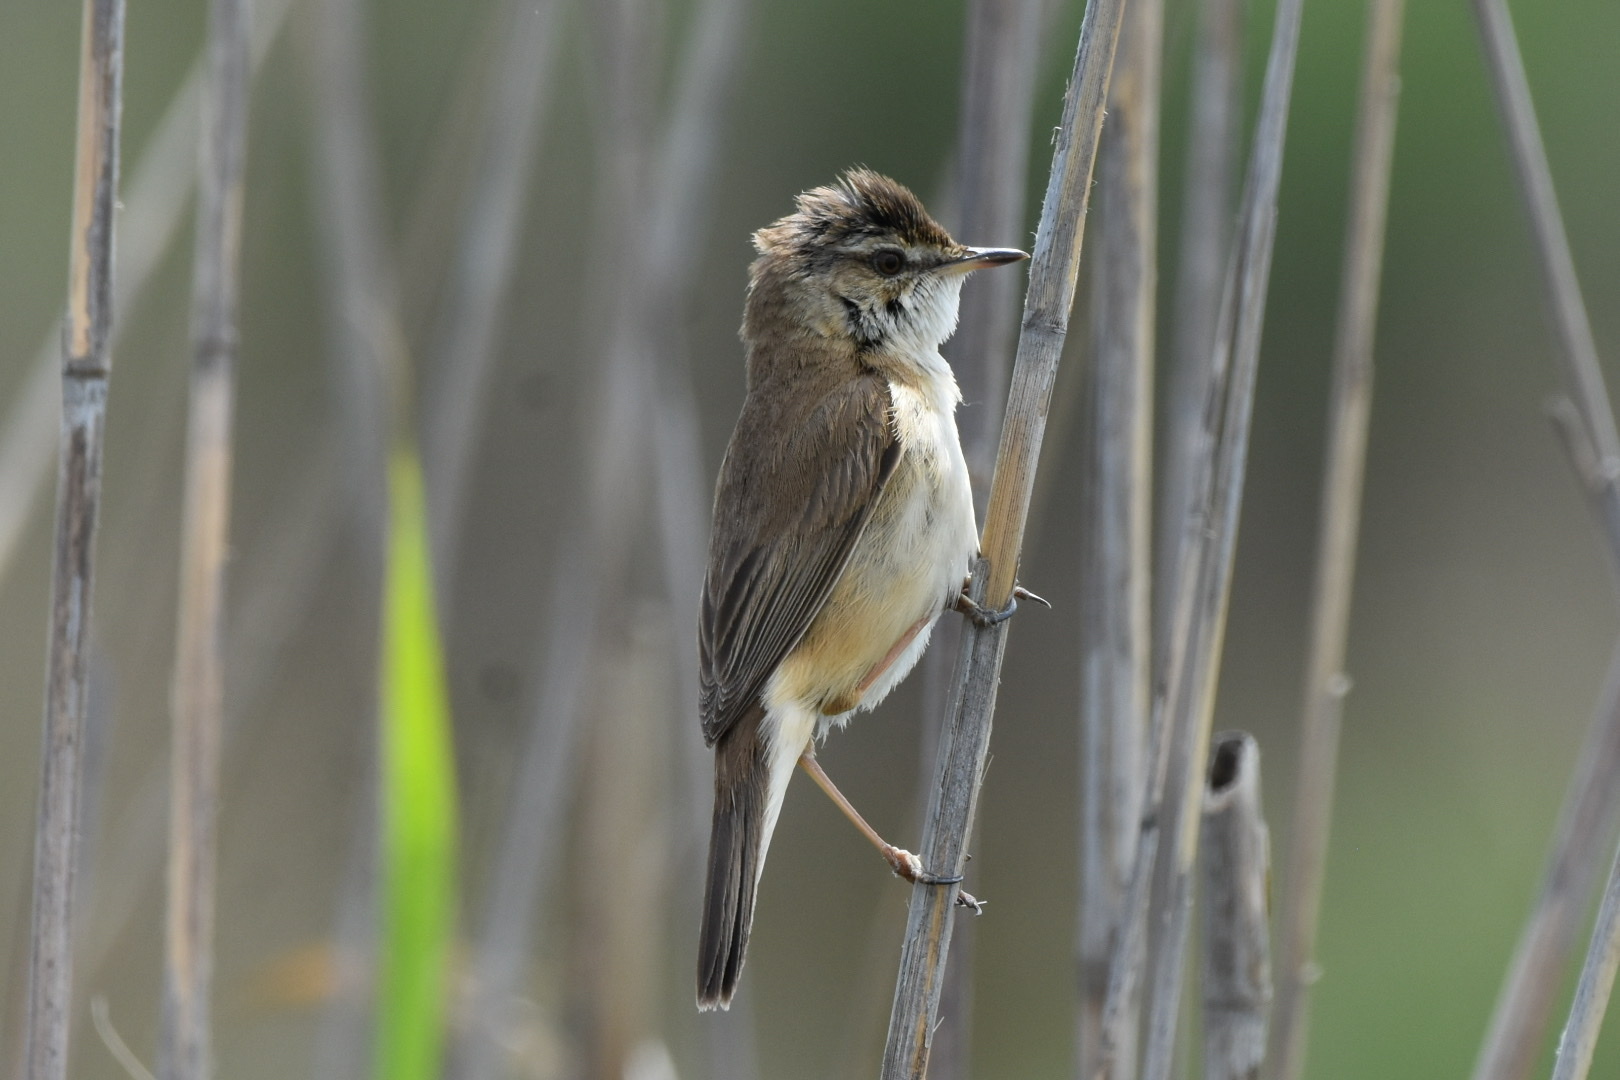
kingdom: Animalia
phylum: Chordata
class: Aves
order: Passeriformes
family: Acrocephalidae
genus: Acrocephalus
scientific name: Acrocephalus agricola
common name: Paddyfield warbler
